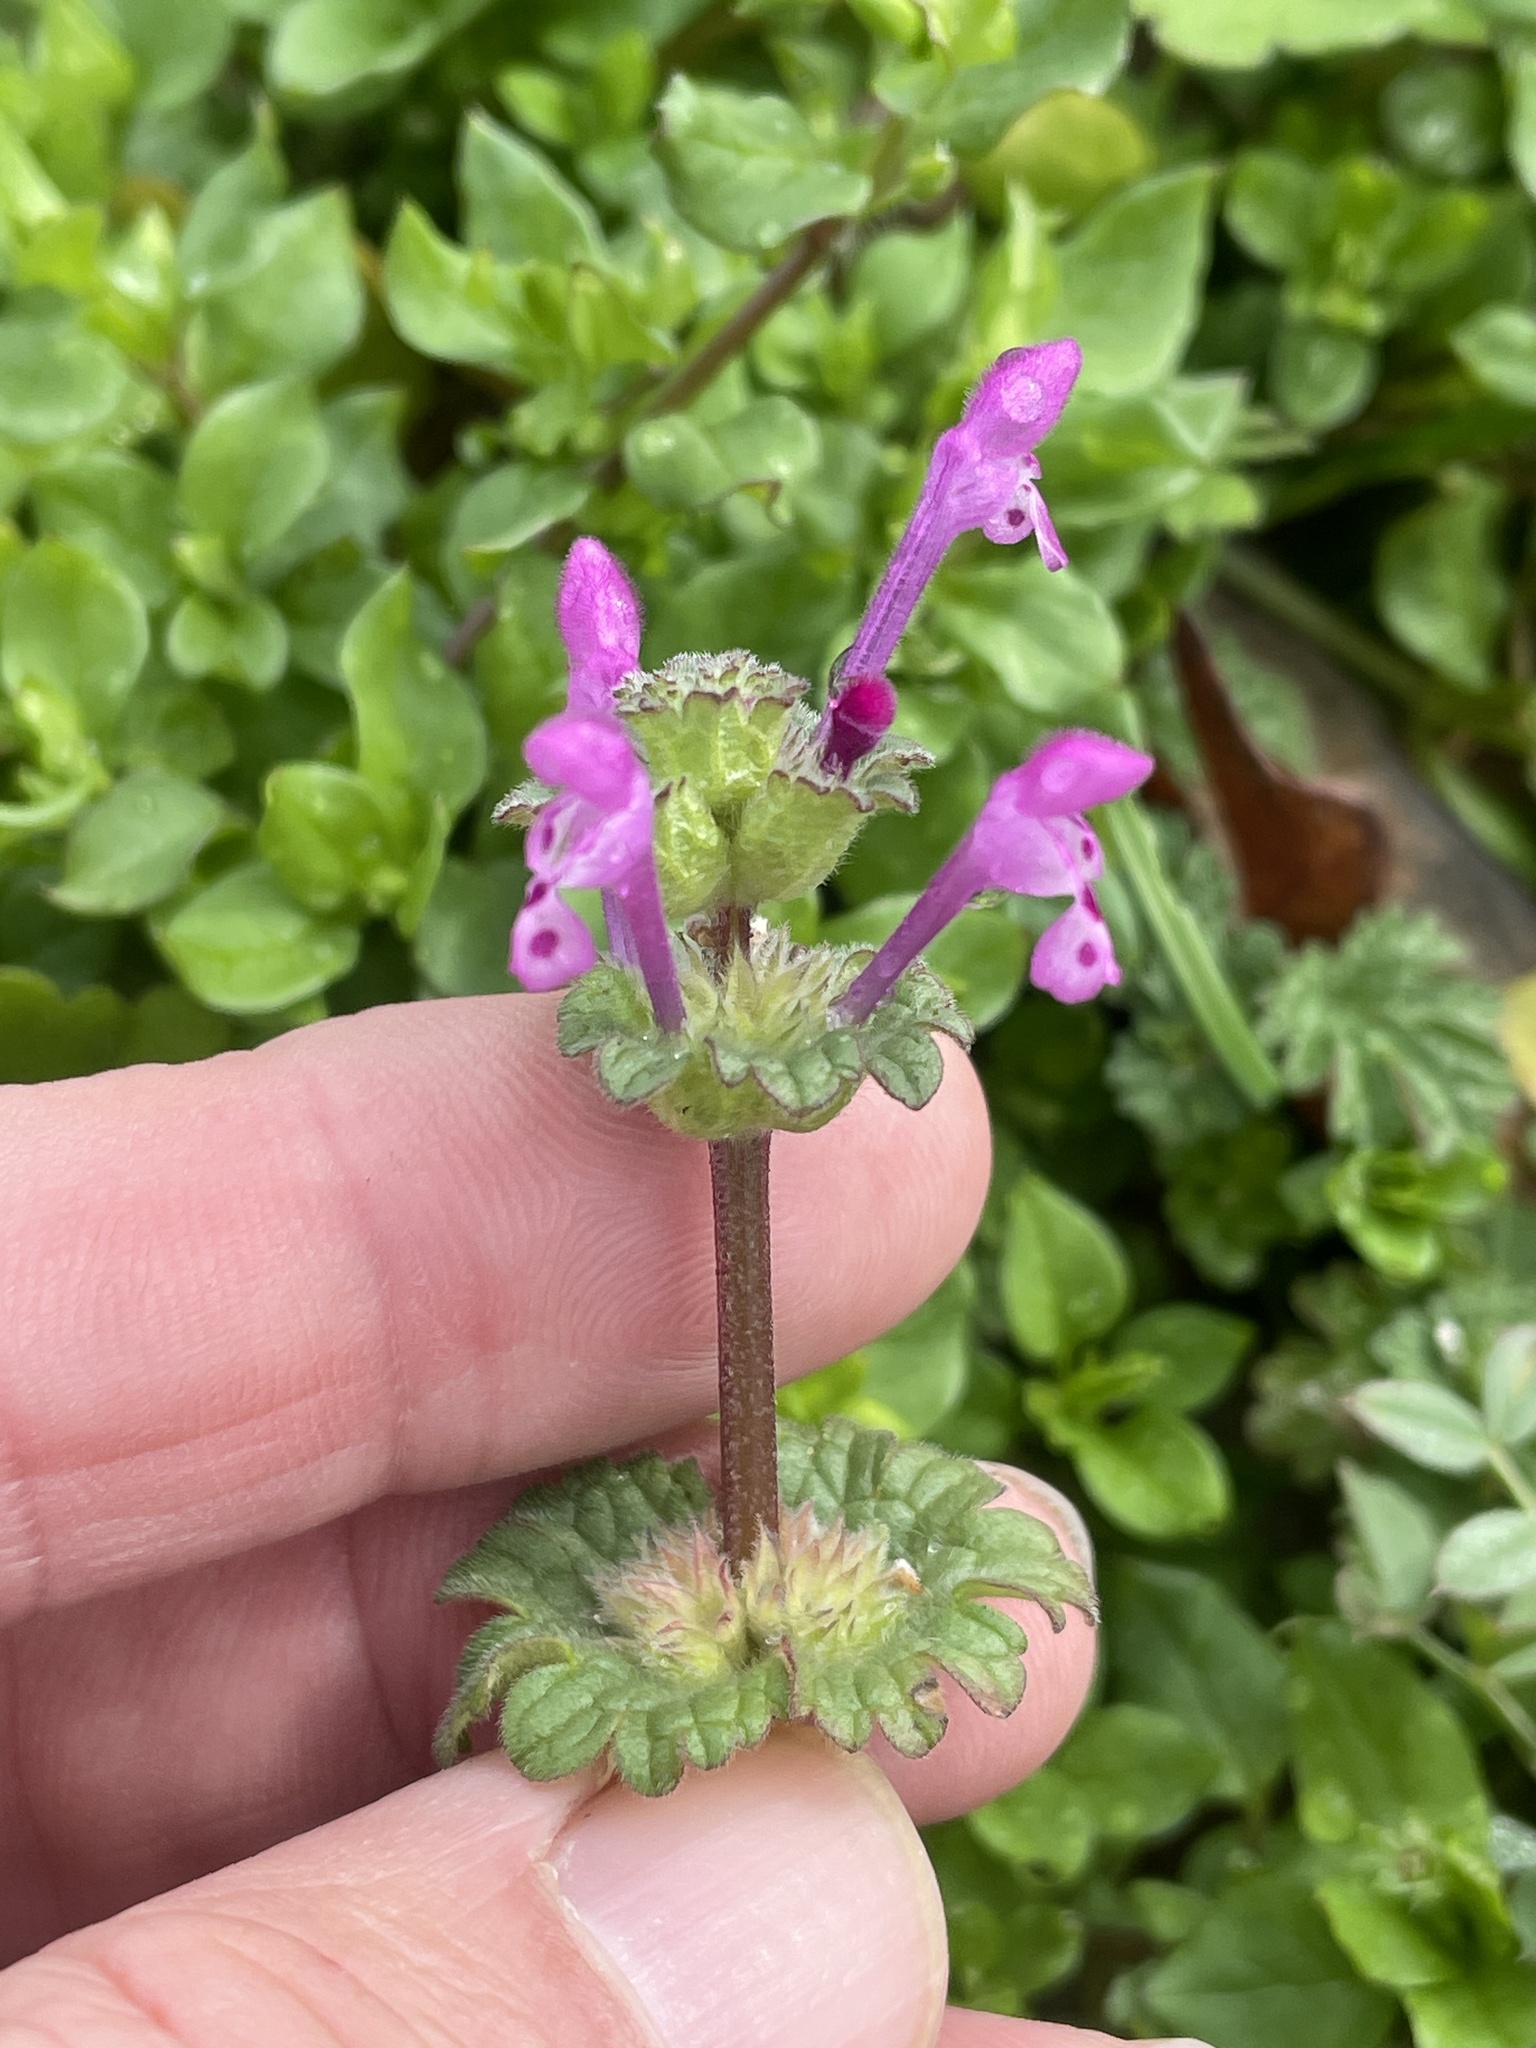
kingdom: Plantae
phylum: Tracheophyta
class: Magnoliopsida
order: Lamiales
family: Lamiaceae
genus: Lamium
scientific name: Lamium amplexicaule
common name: Henbit dead-nettle
